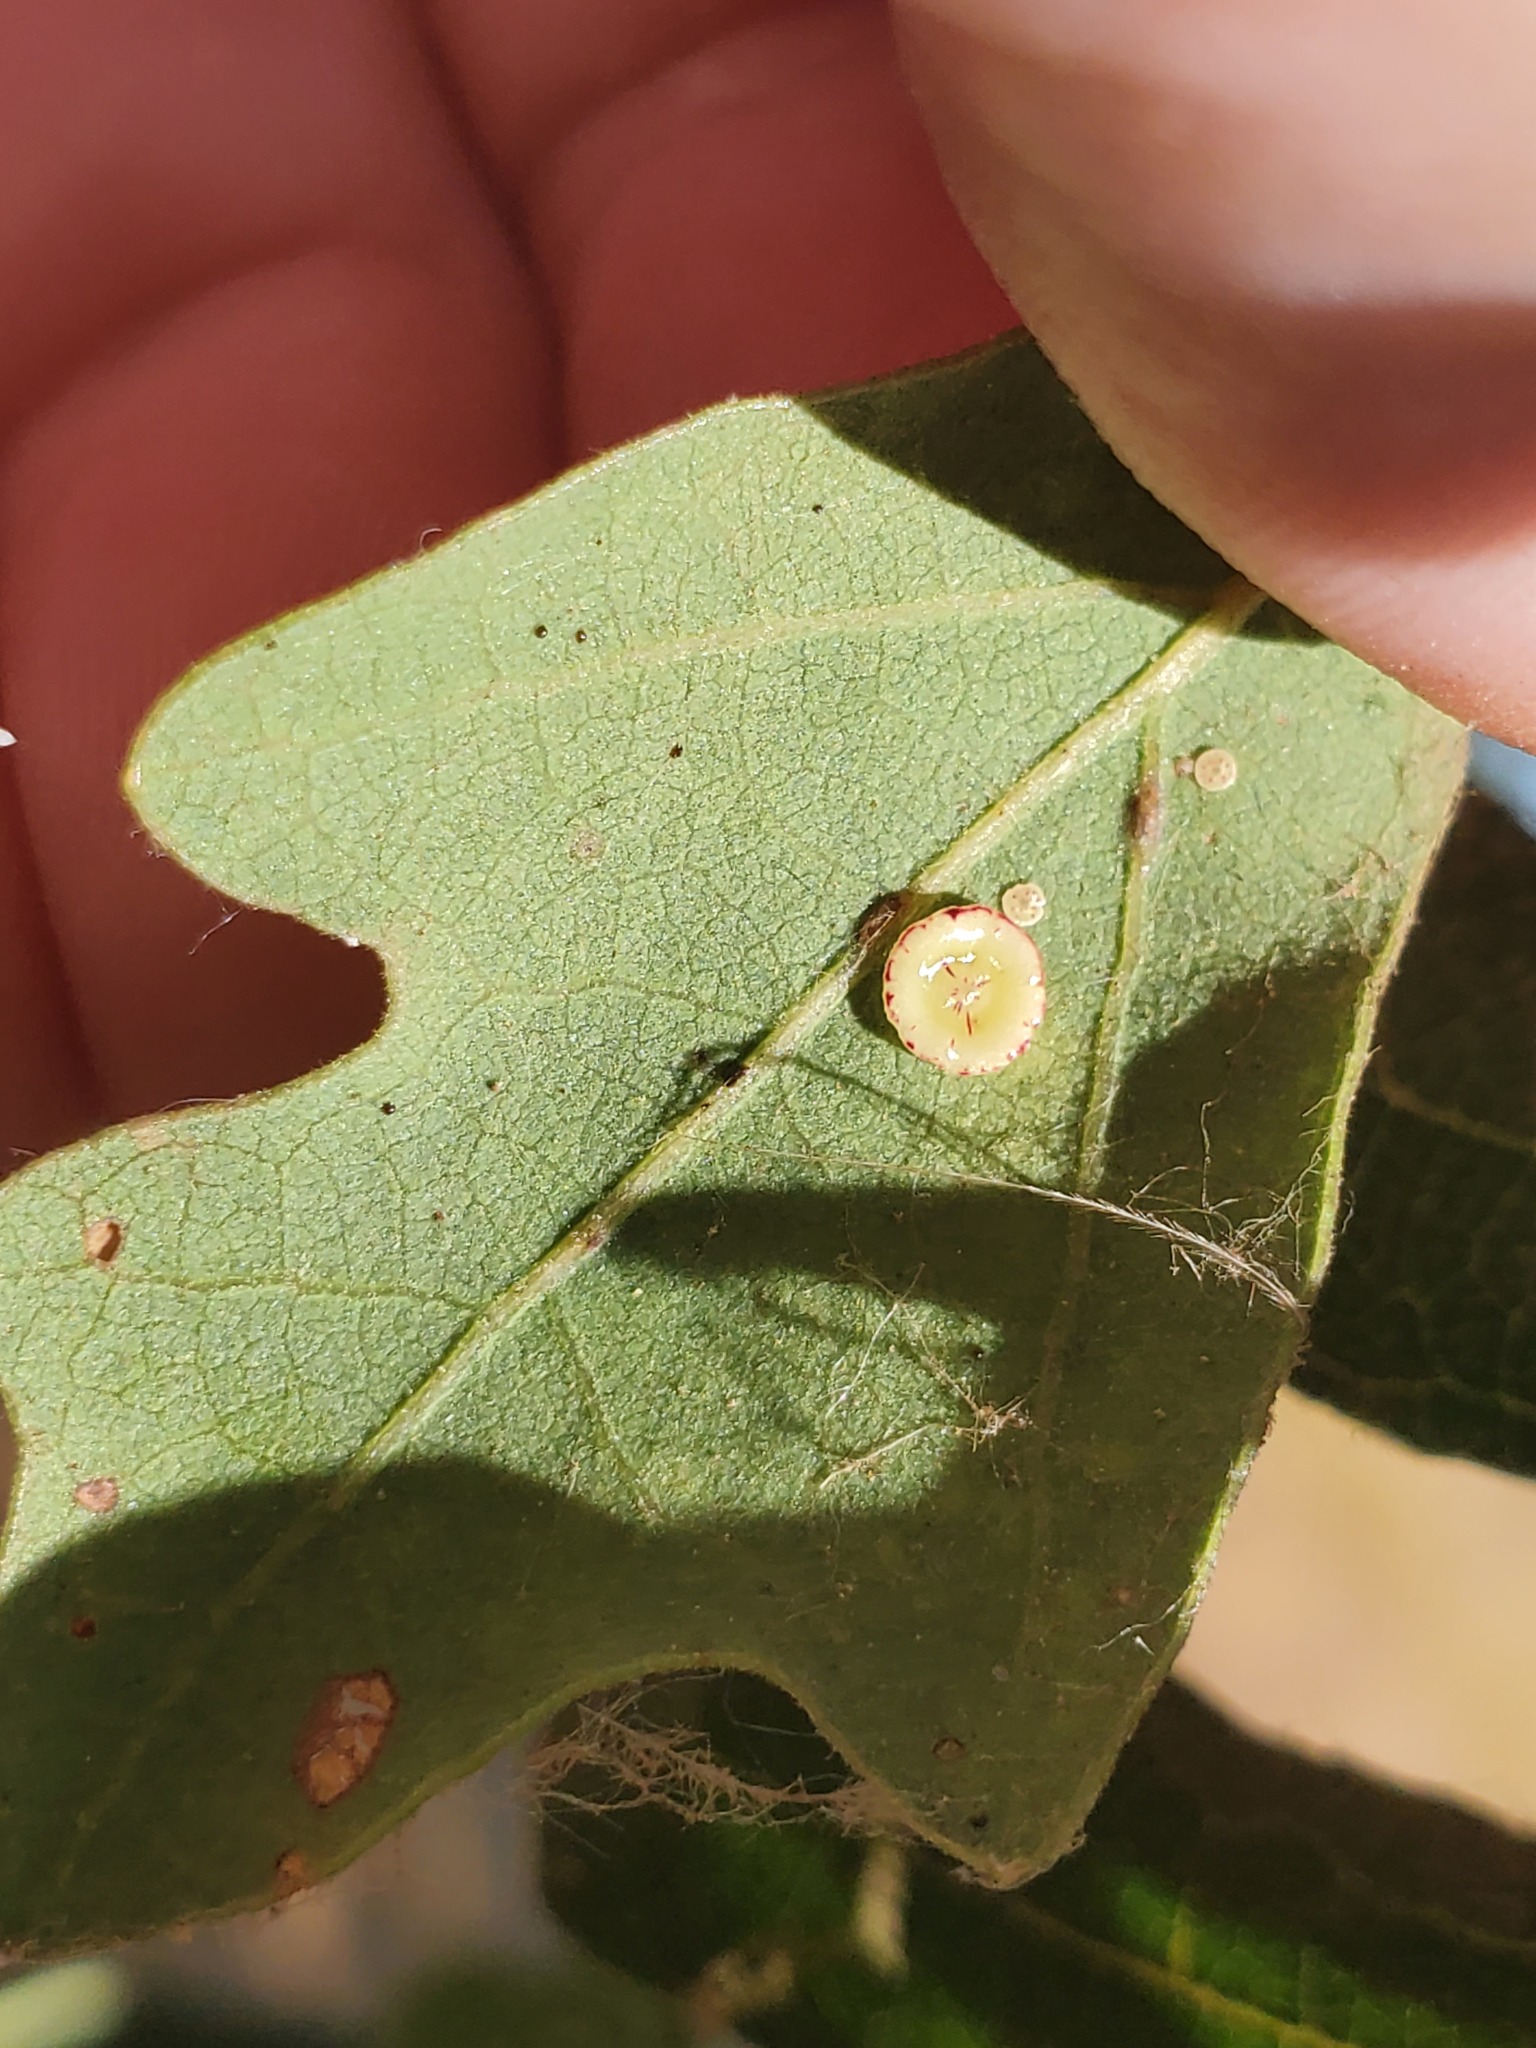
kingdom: Animalia
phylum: Arthropoda
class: Insecta
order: Hymenoptera
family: Cynipidae
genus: Andricus
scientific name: Andricus
